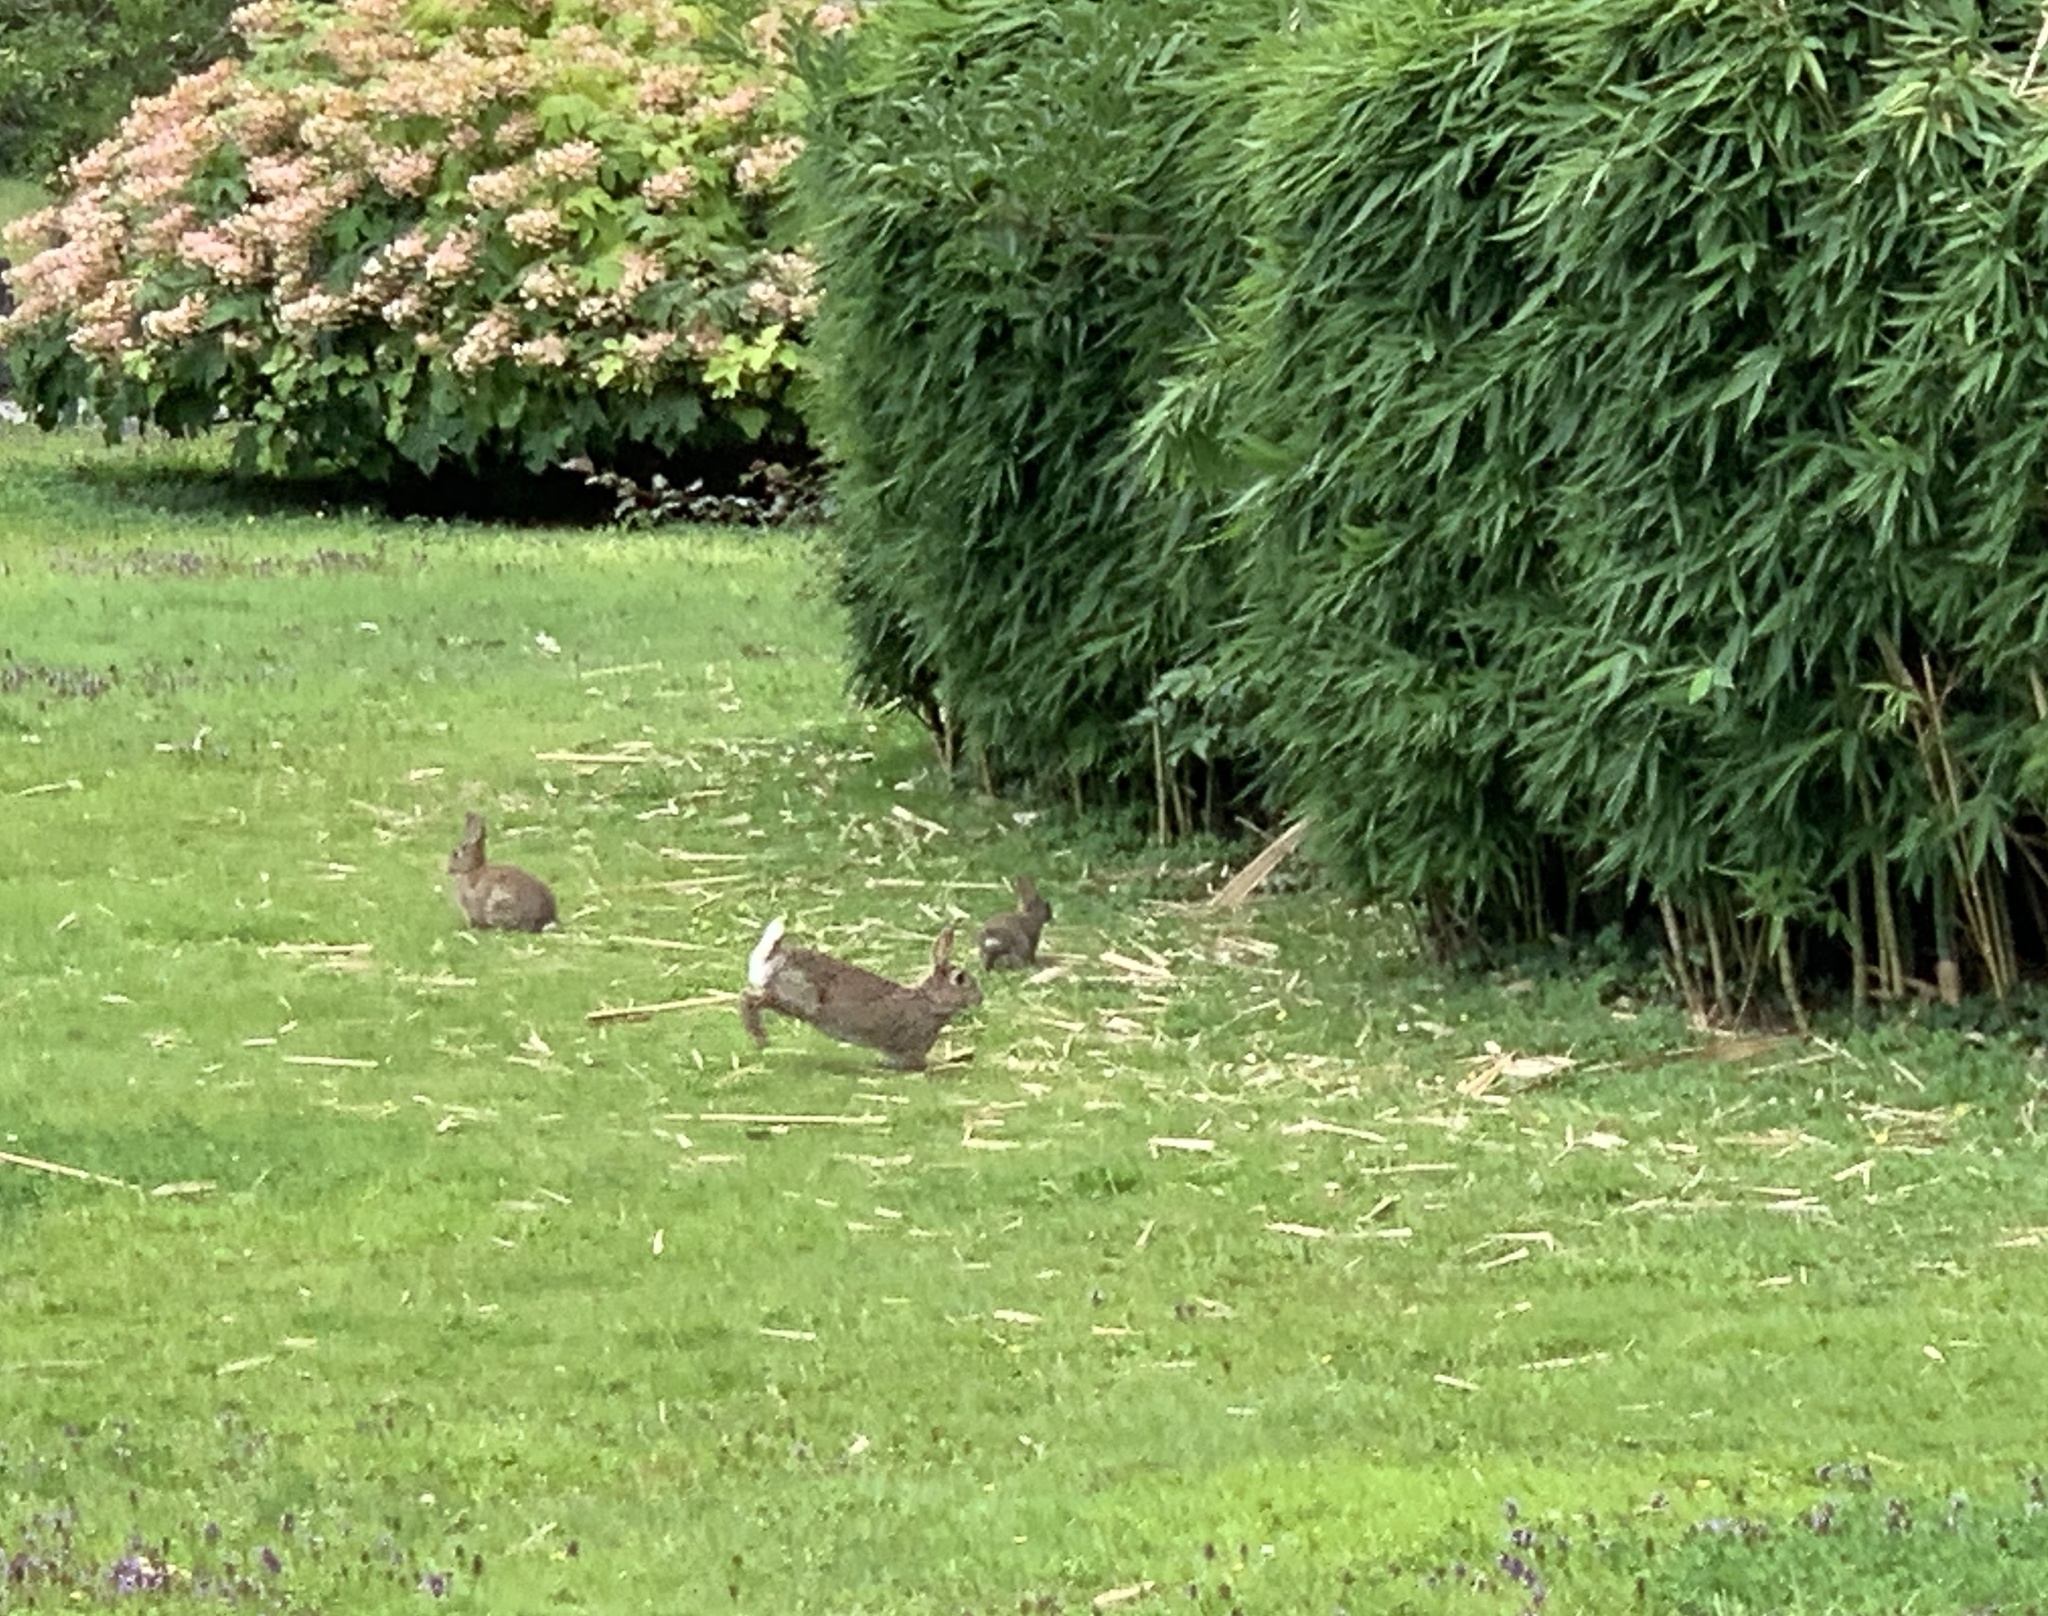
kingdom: Animalia
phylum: Chordata
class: Mammalia
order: Lagomorpha
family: Leporidae
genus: Oryctolagus
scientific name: Oryctolagus cuniculus
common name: European rabbit
